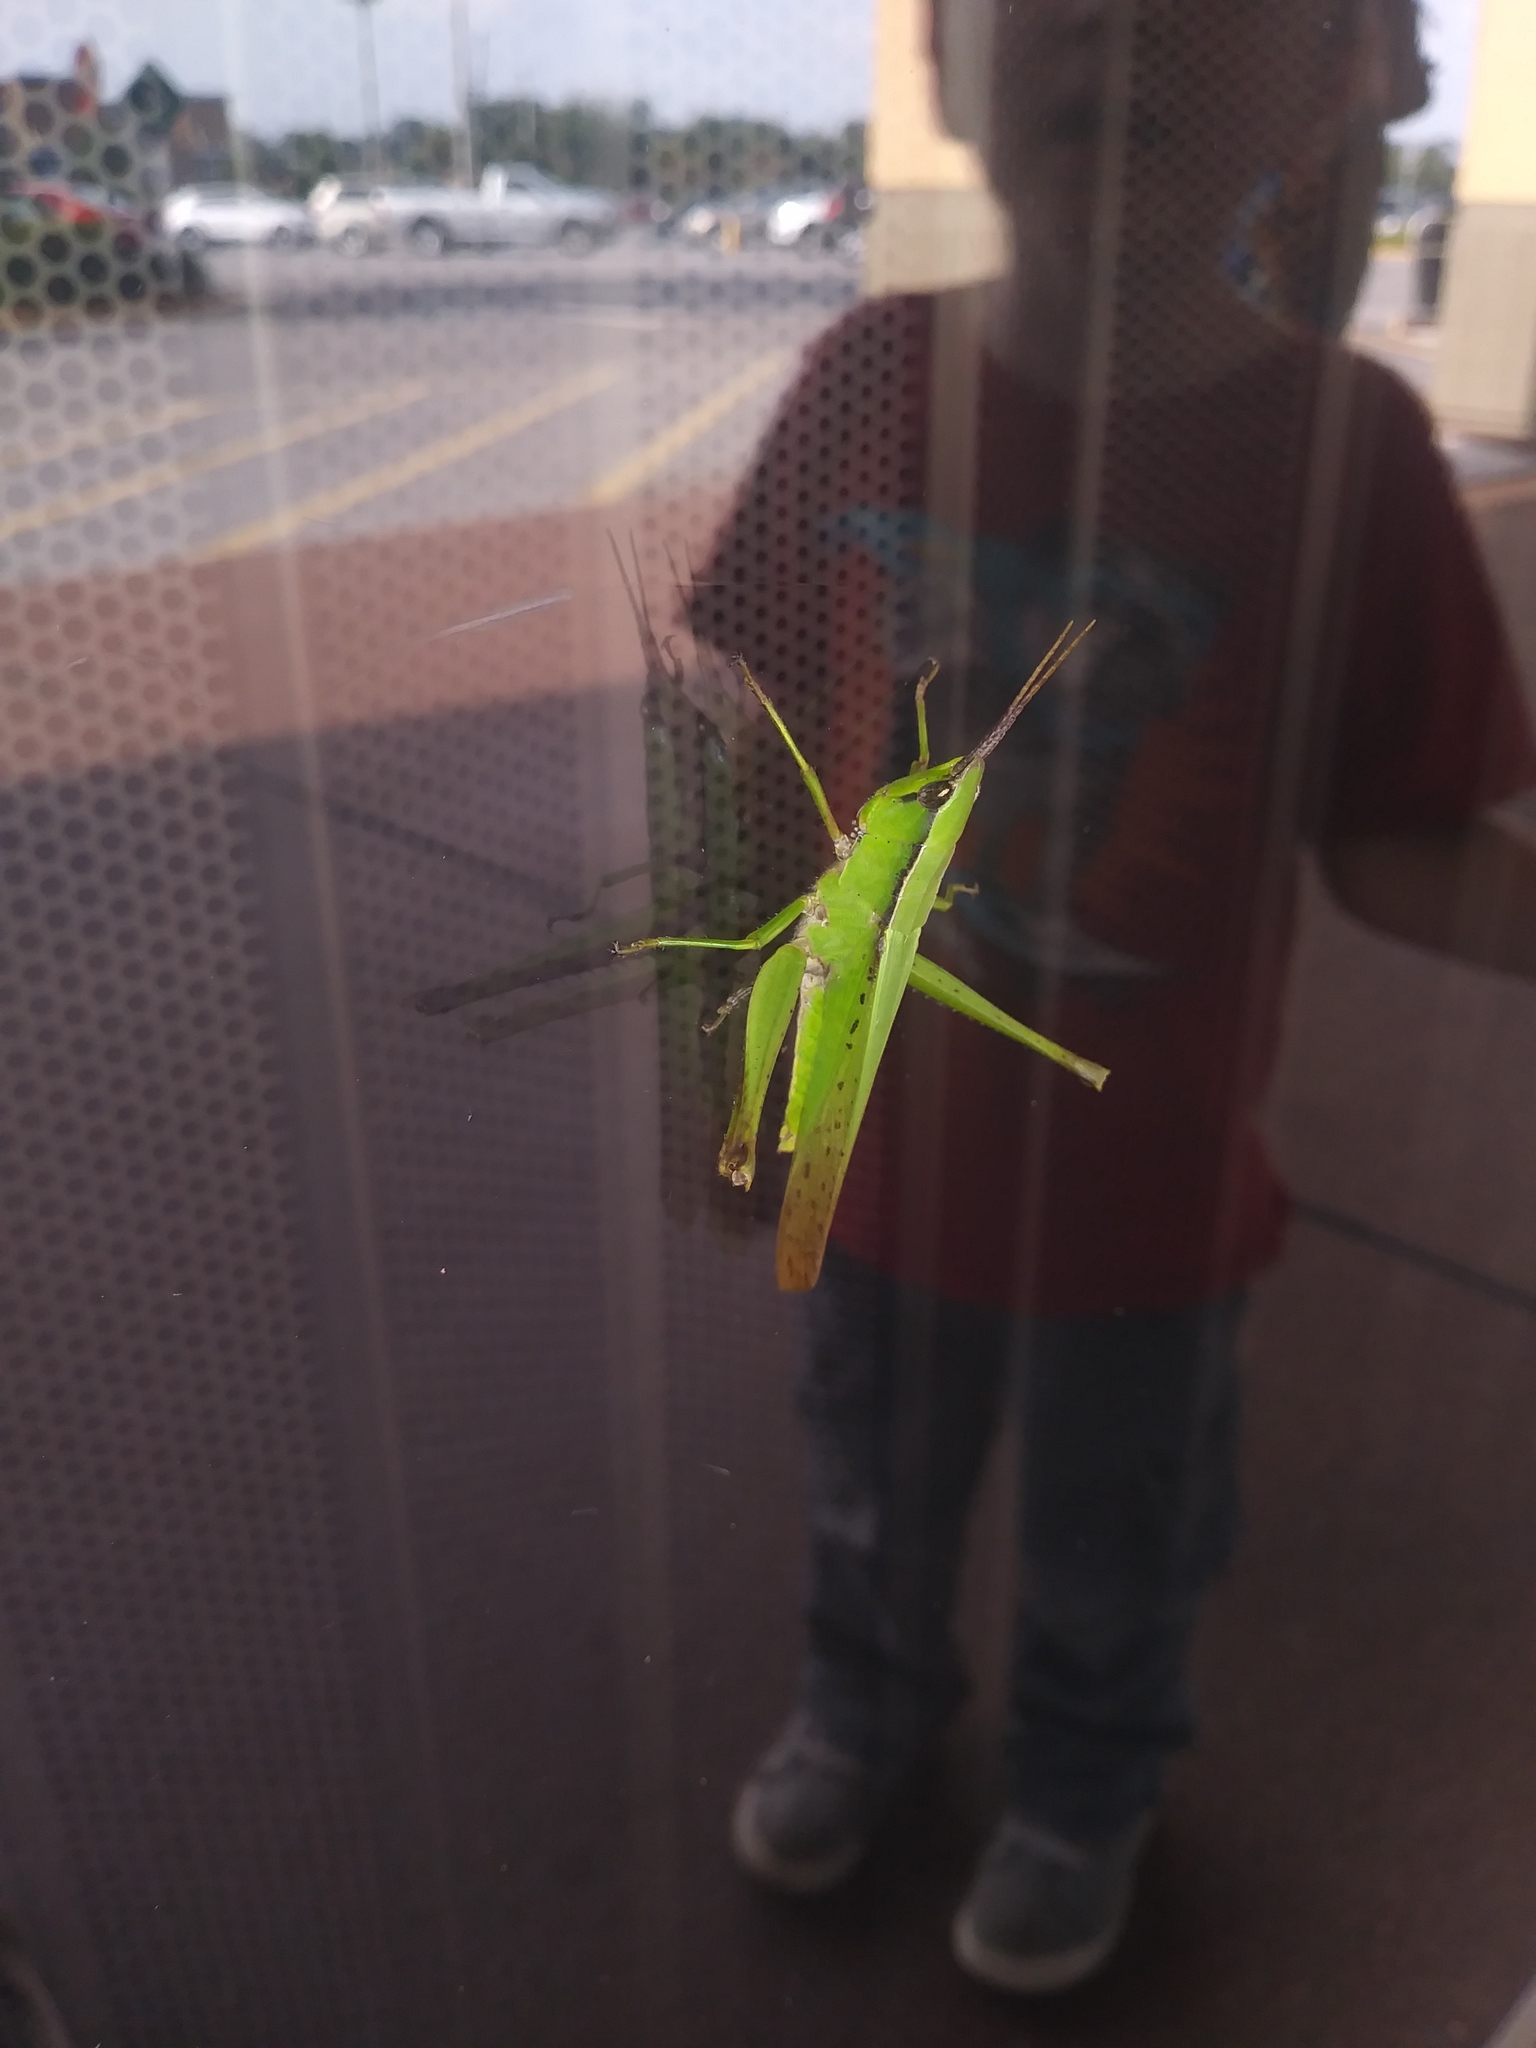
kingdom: Animalia
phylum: Arthropoda
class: Insecta
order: Orthoptera
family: Acrididae
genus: Metaleptea
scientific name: Metaleptea brevicornis
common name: Clipped-wing grasshopper
